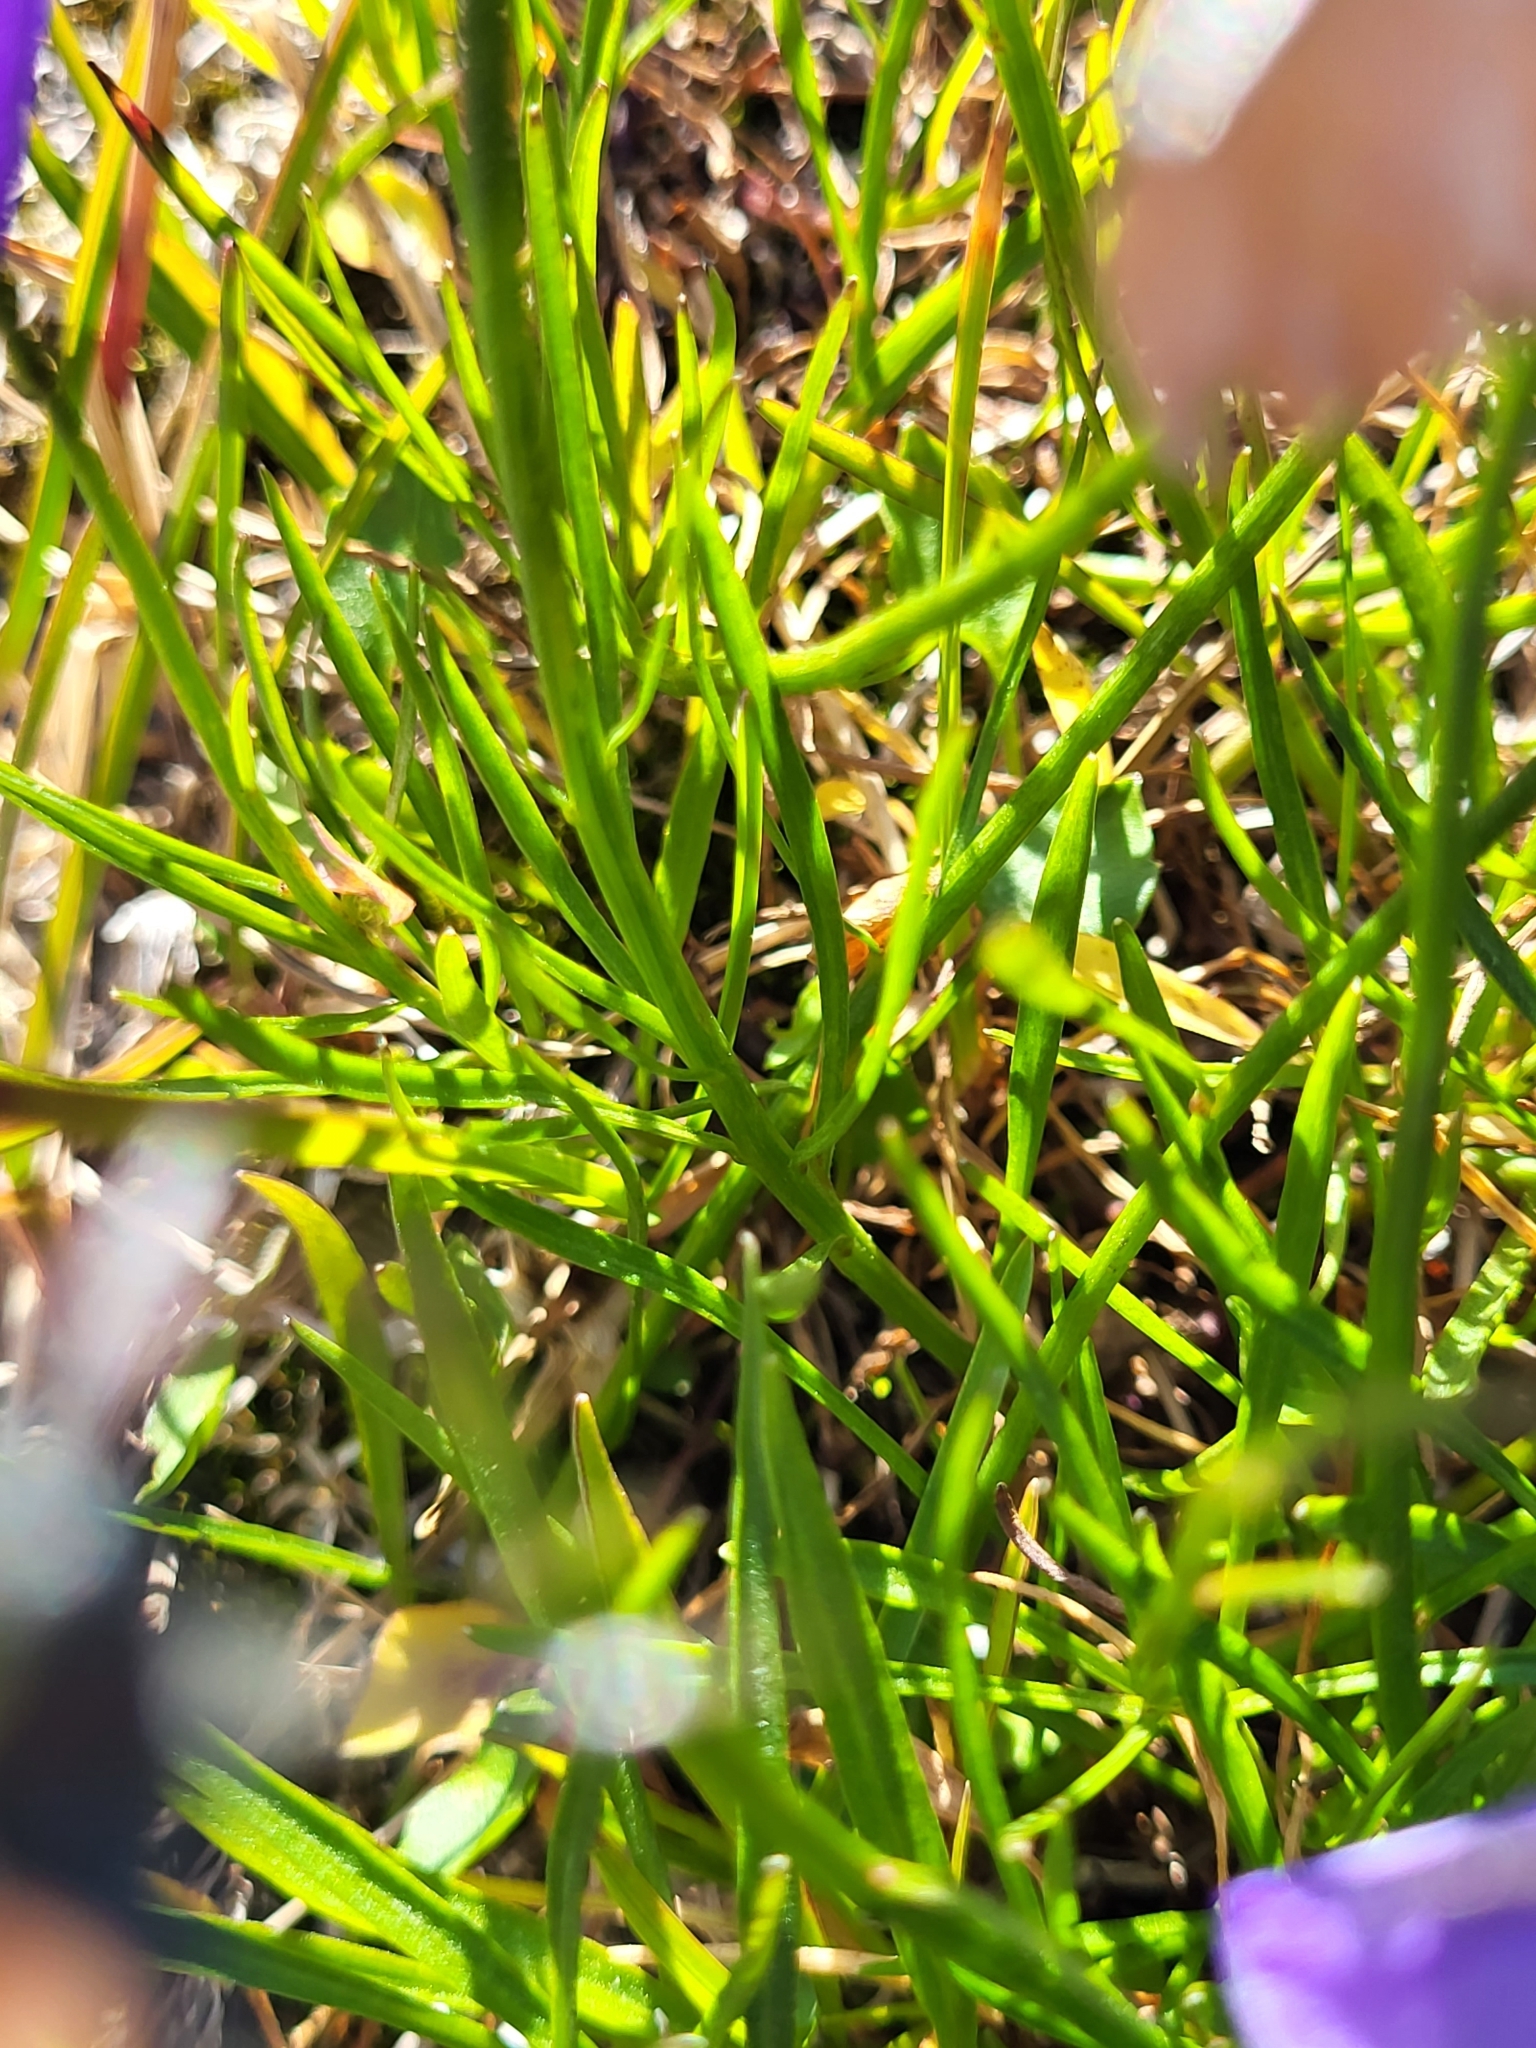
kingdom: Plantae
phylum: Tracheophyta
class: Magnoliopsida
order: Asterales
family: Campanulaceae
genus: Campanula
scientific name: Campanula giesekiana
